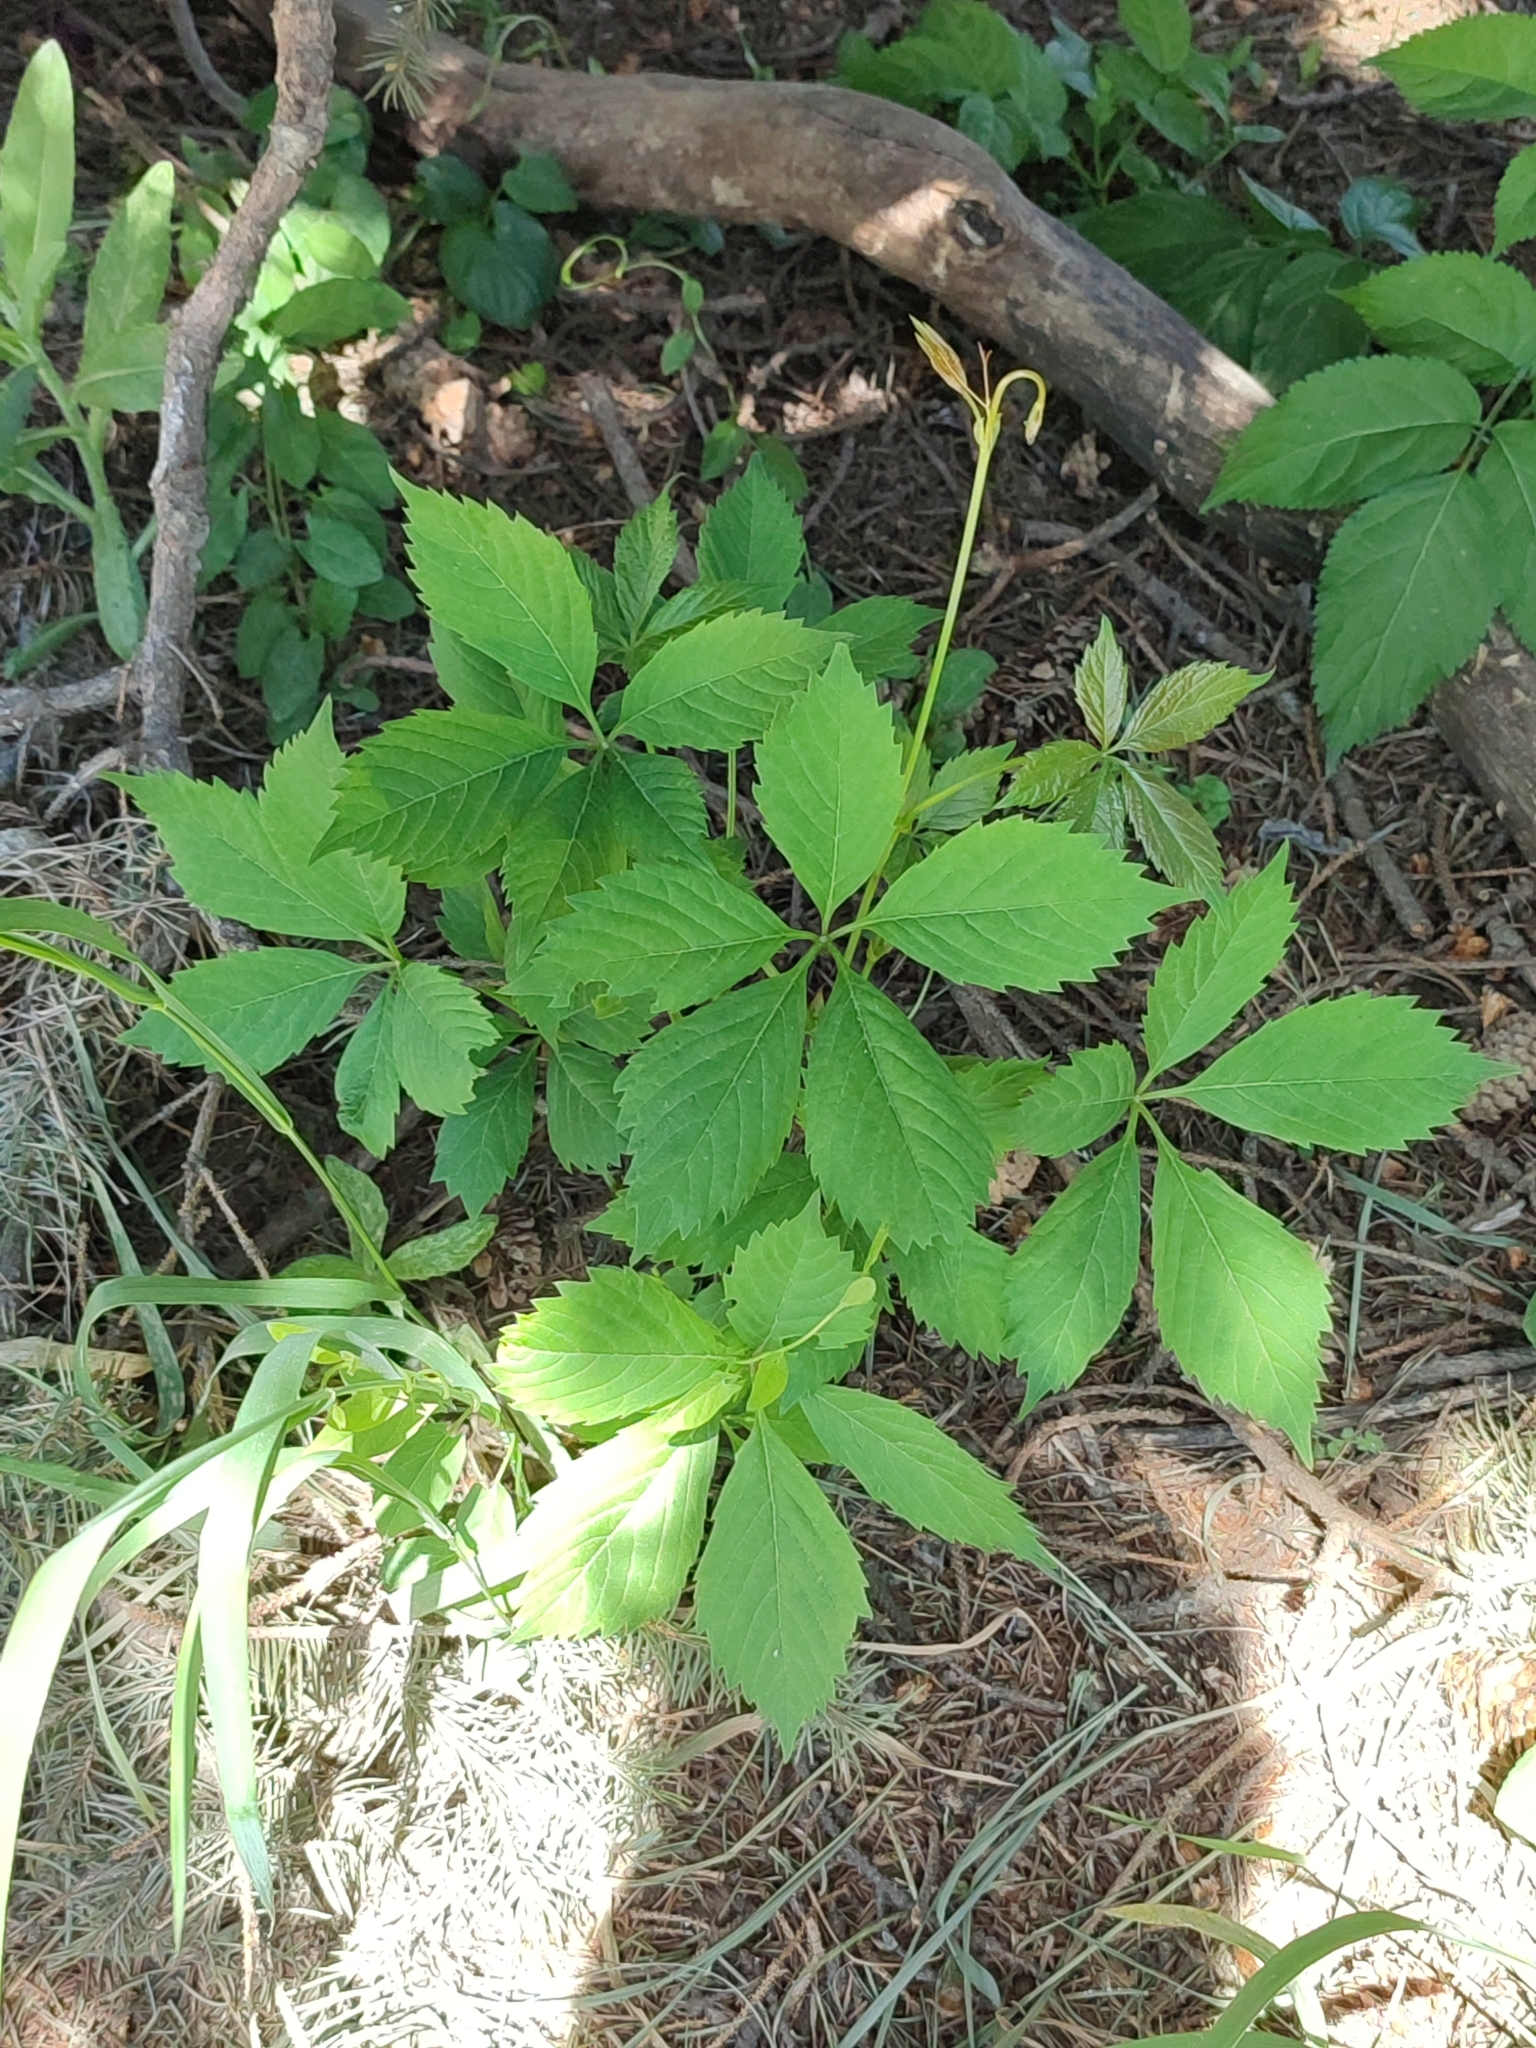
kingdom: Plantae
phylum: Tracheophyta
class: Magnoliopsida
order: Vitales
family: Vitaceae
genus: Parthenocissus
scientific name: Parthenocissus inserta
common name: False virginia-creeper
